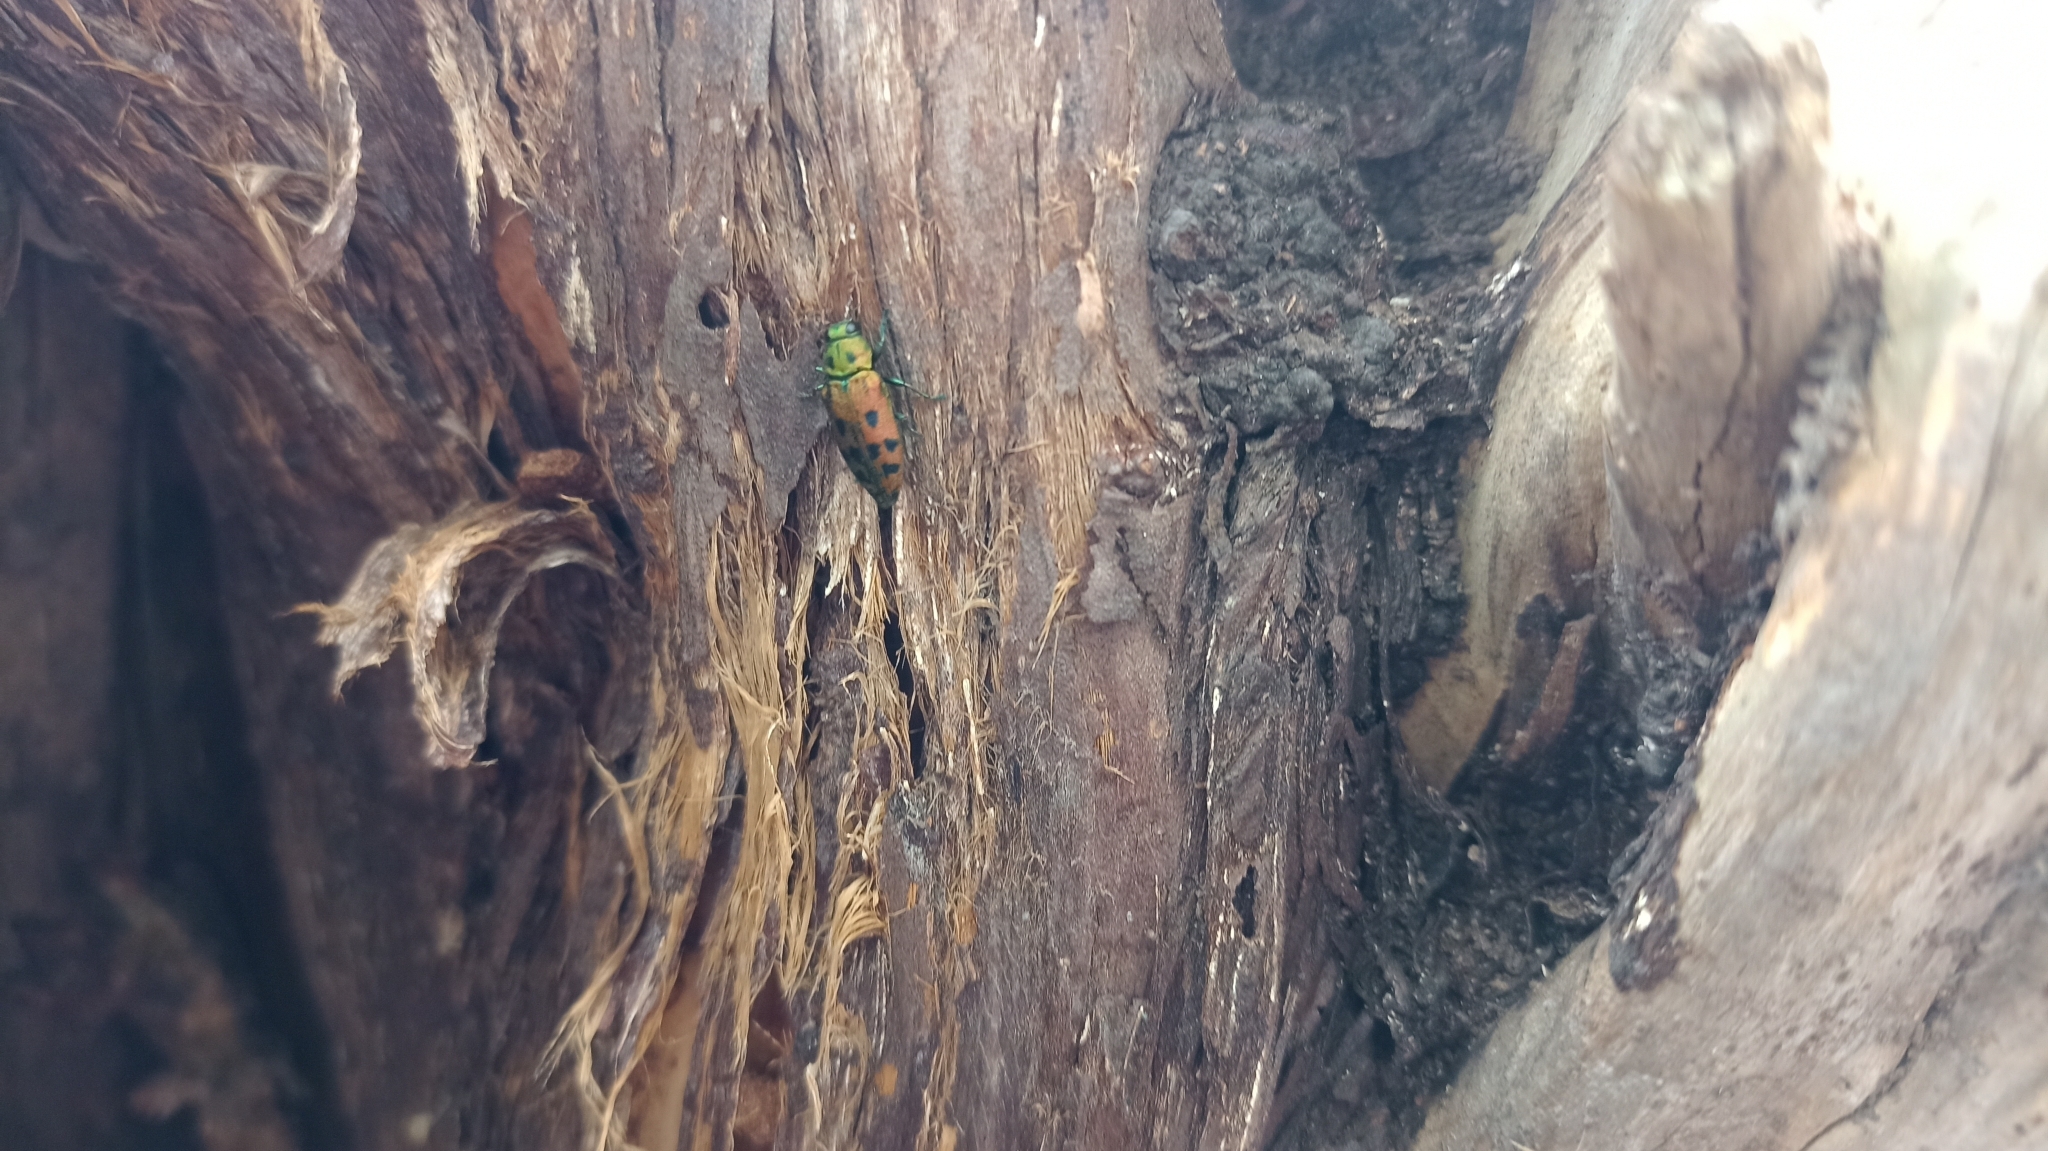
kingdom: Animalia
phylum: Arthropoda
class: Insecta
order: Coleoptera
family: Buprestidae
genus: Lamprodila
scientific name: Lamprodila vivata
